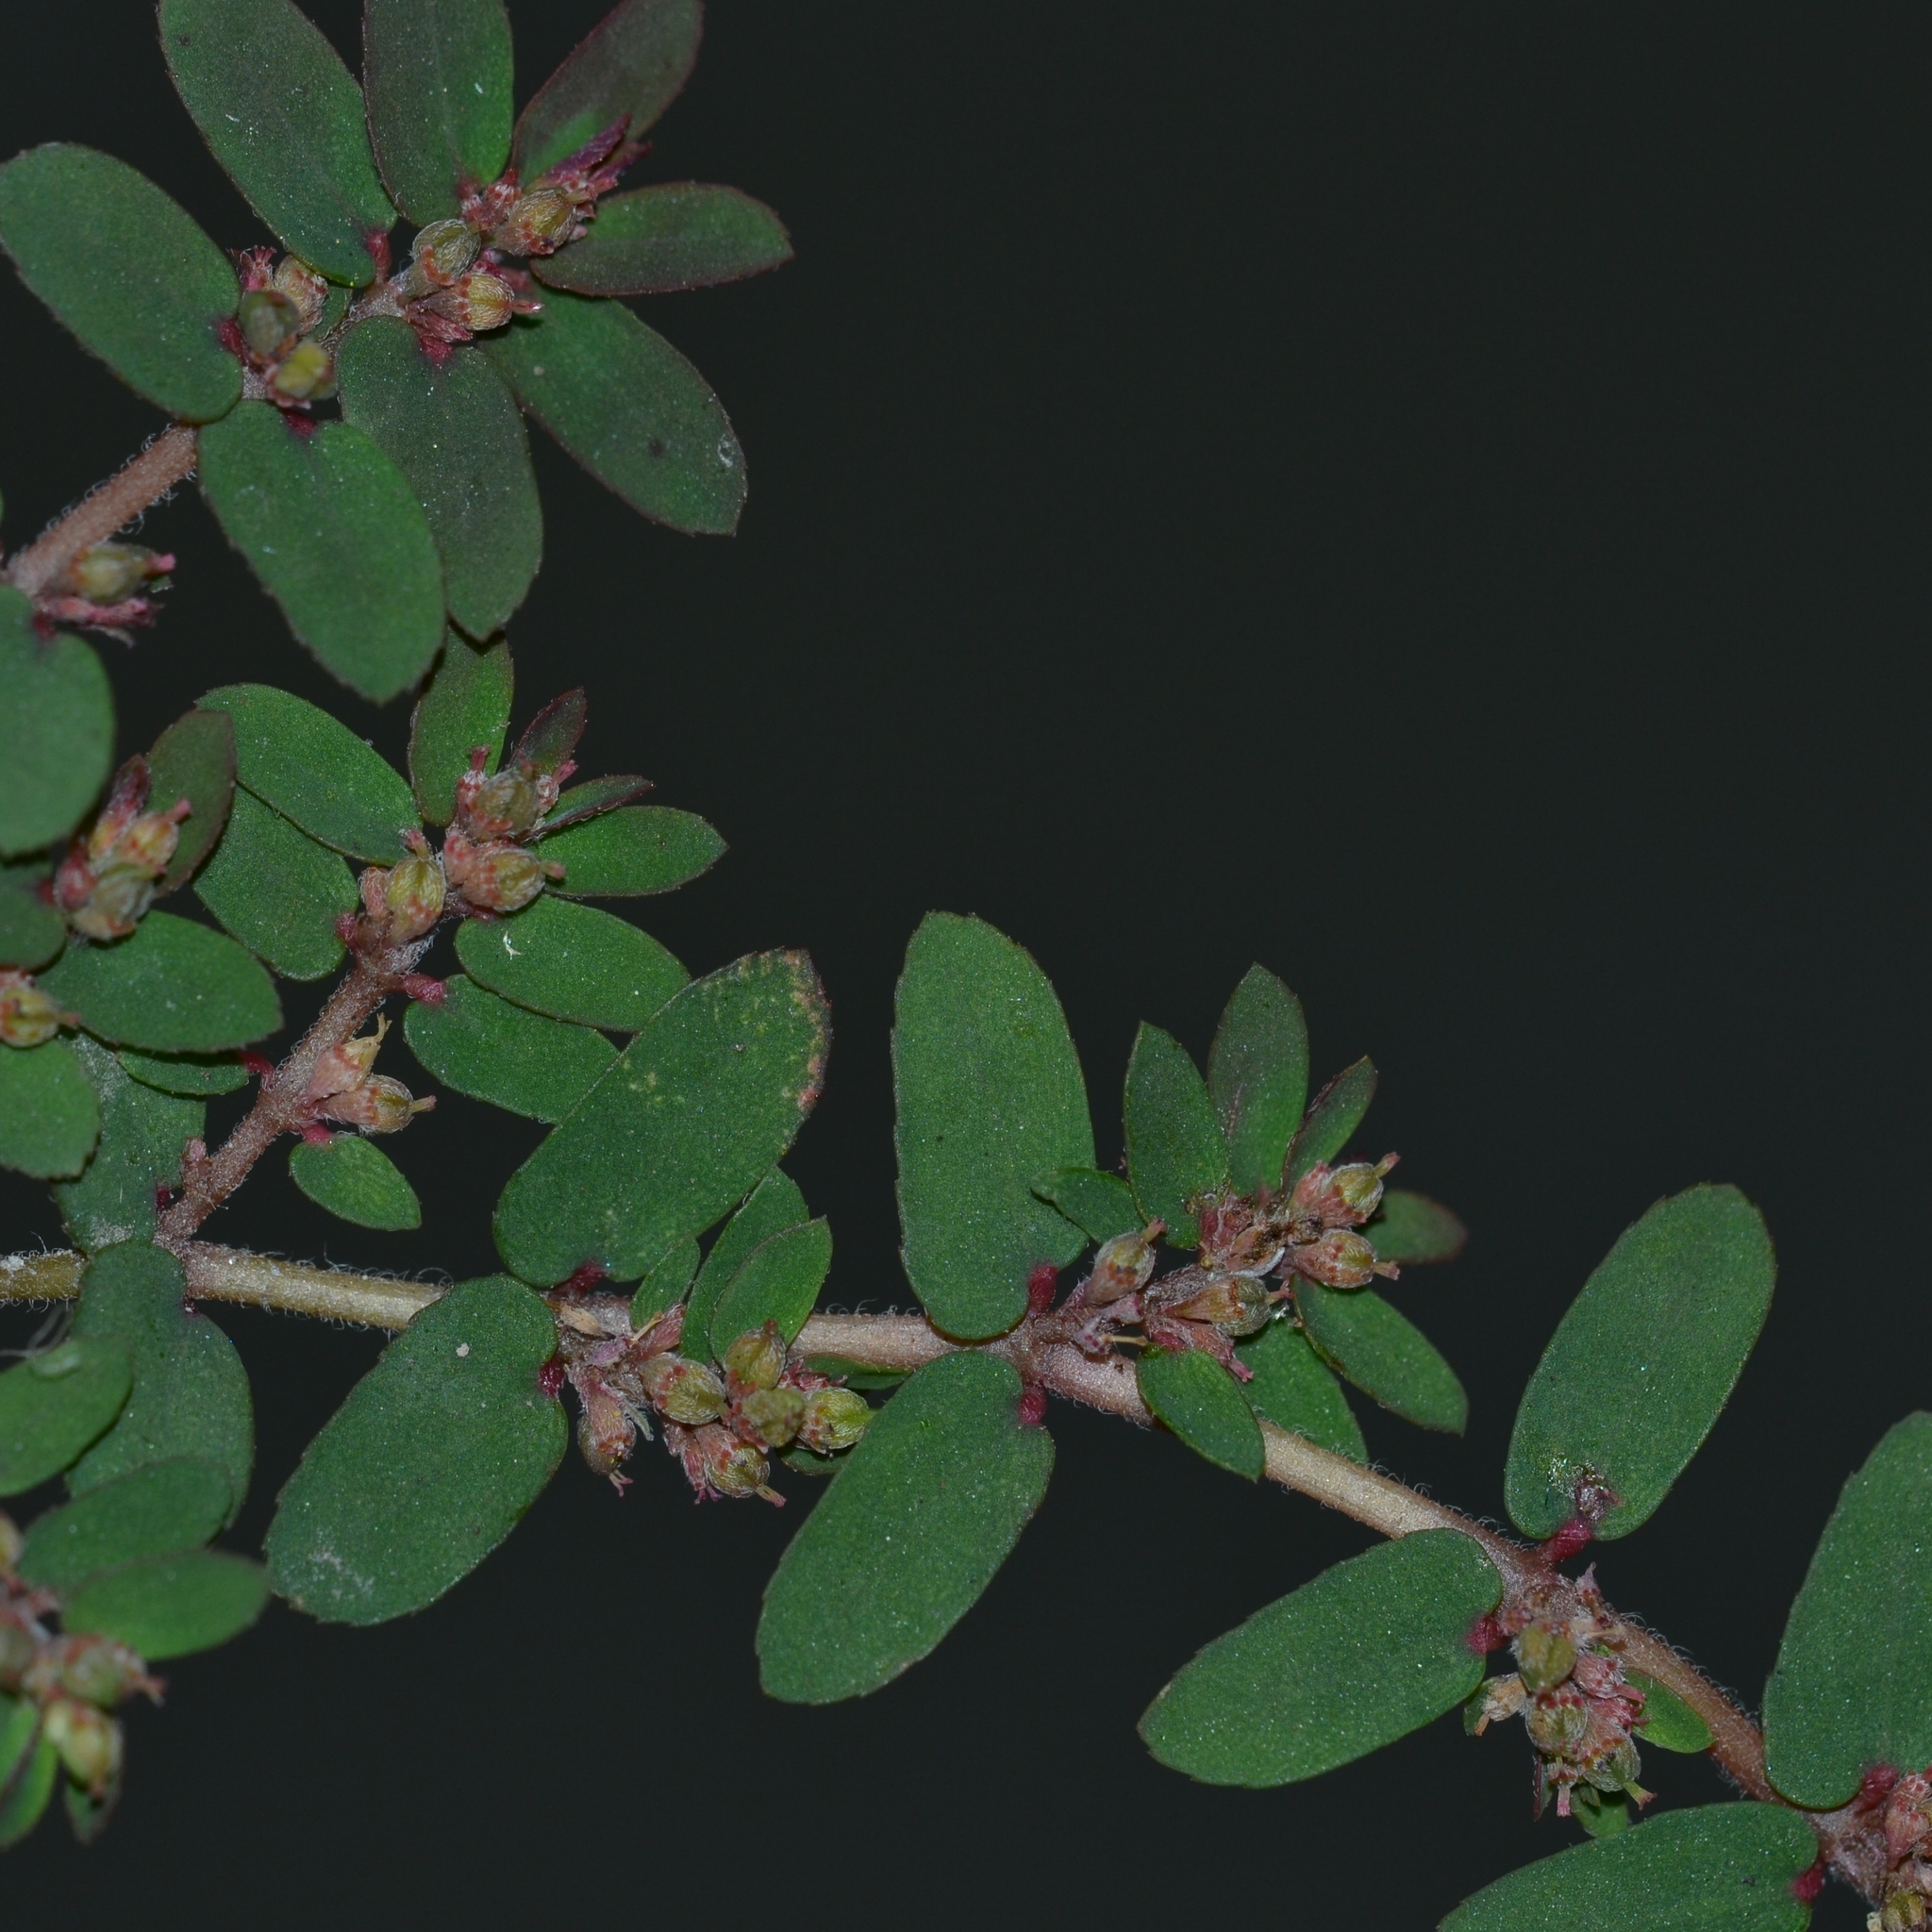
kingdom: Plantae
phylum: Tracheophyta
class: Magnoliopsida
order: Malpighiales
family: Euphorbiaceae
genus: Euphorbia
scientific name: Euphorbia thymifolia
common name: Gulf sandmat
